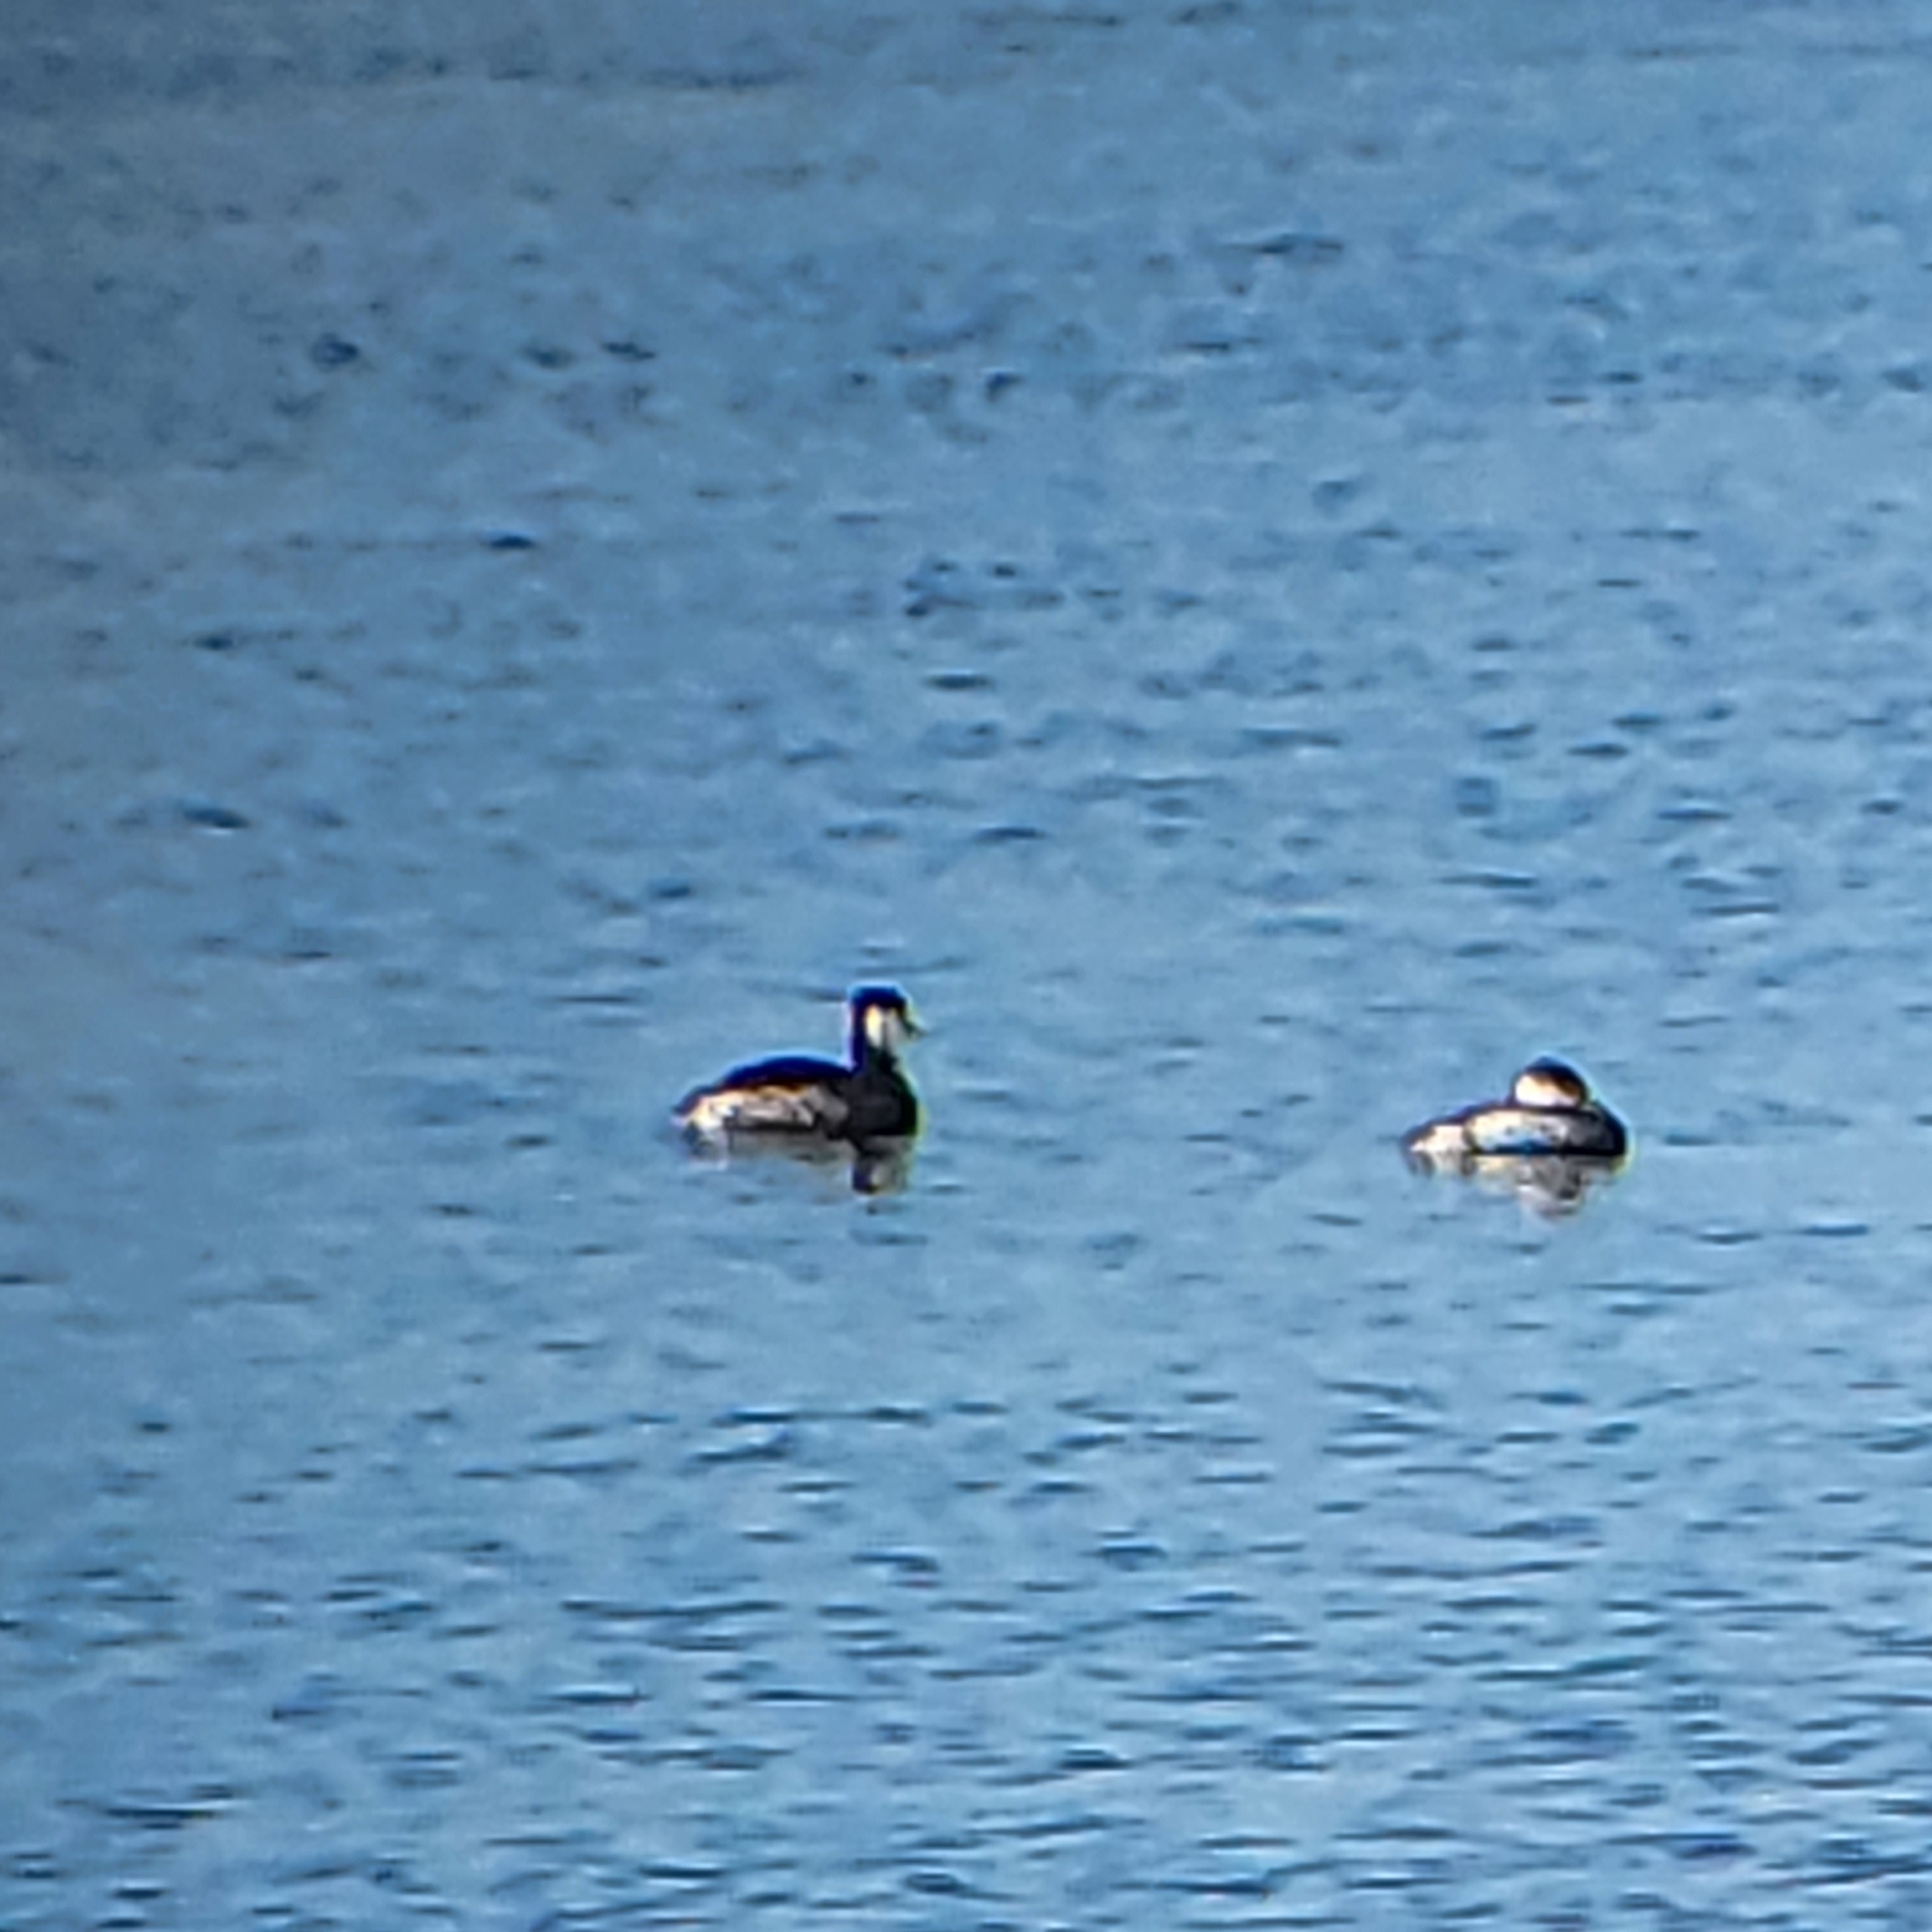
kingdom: Animalia
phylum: Chordata
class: Aves
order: Podicipediformes
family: Podicipedidae
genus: Podiceps
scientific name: Podiceps auritus
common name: Horned grebe
